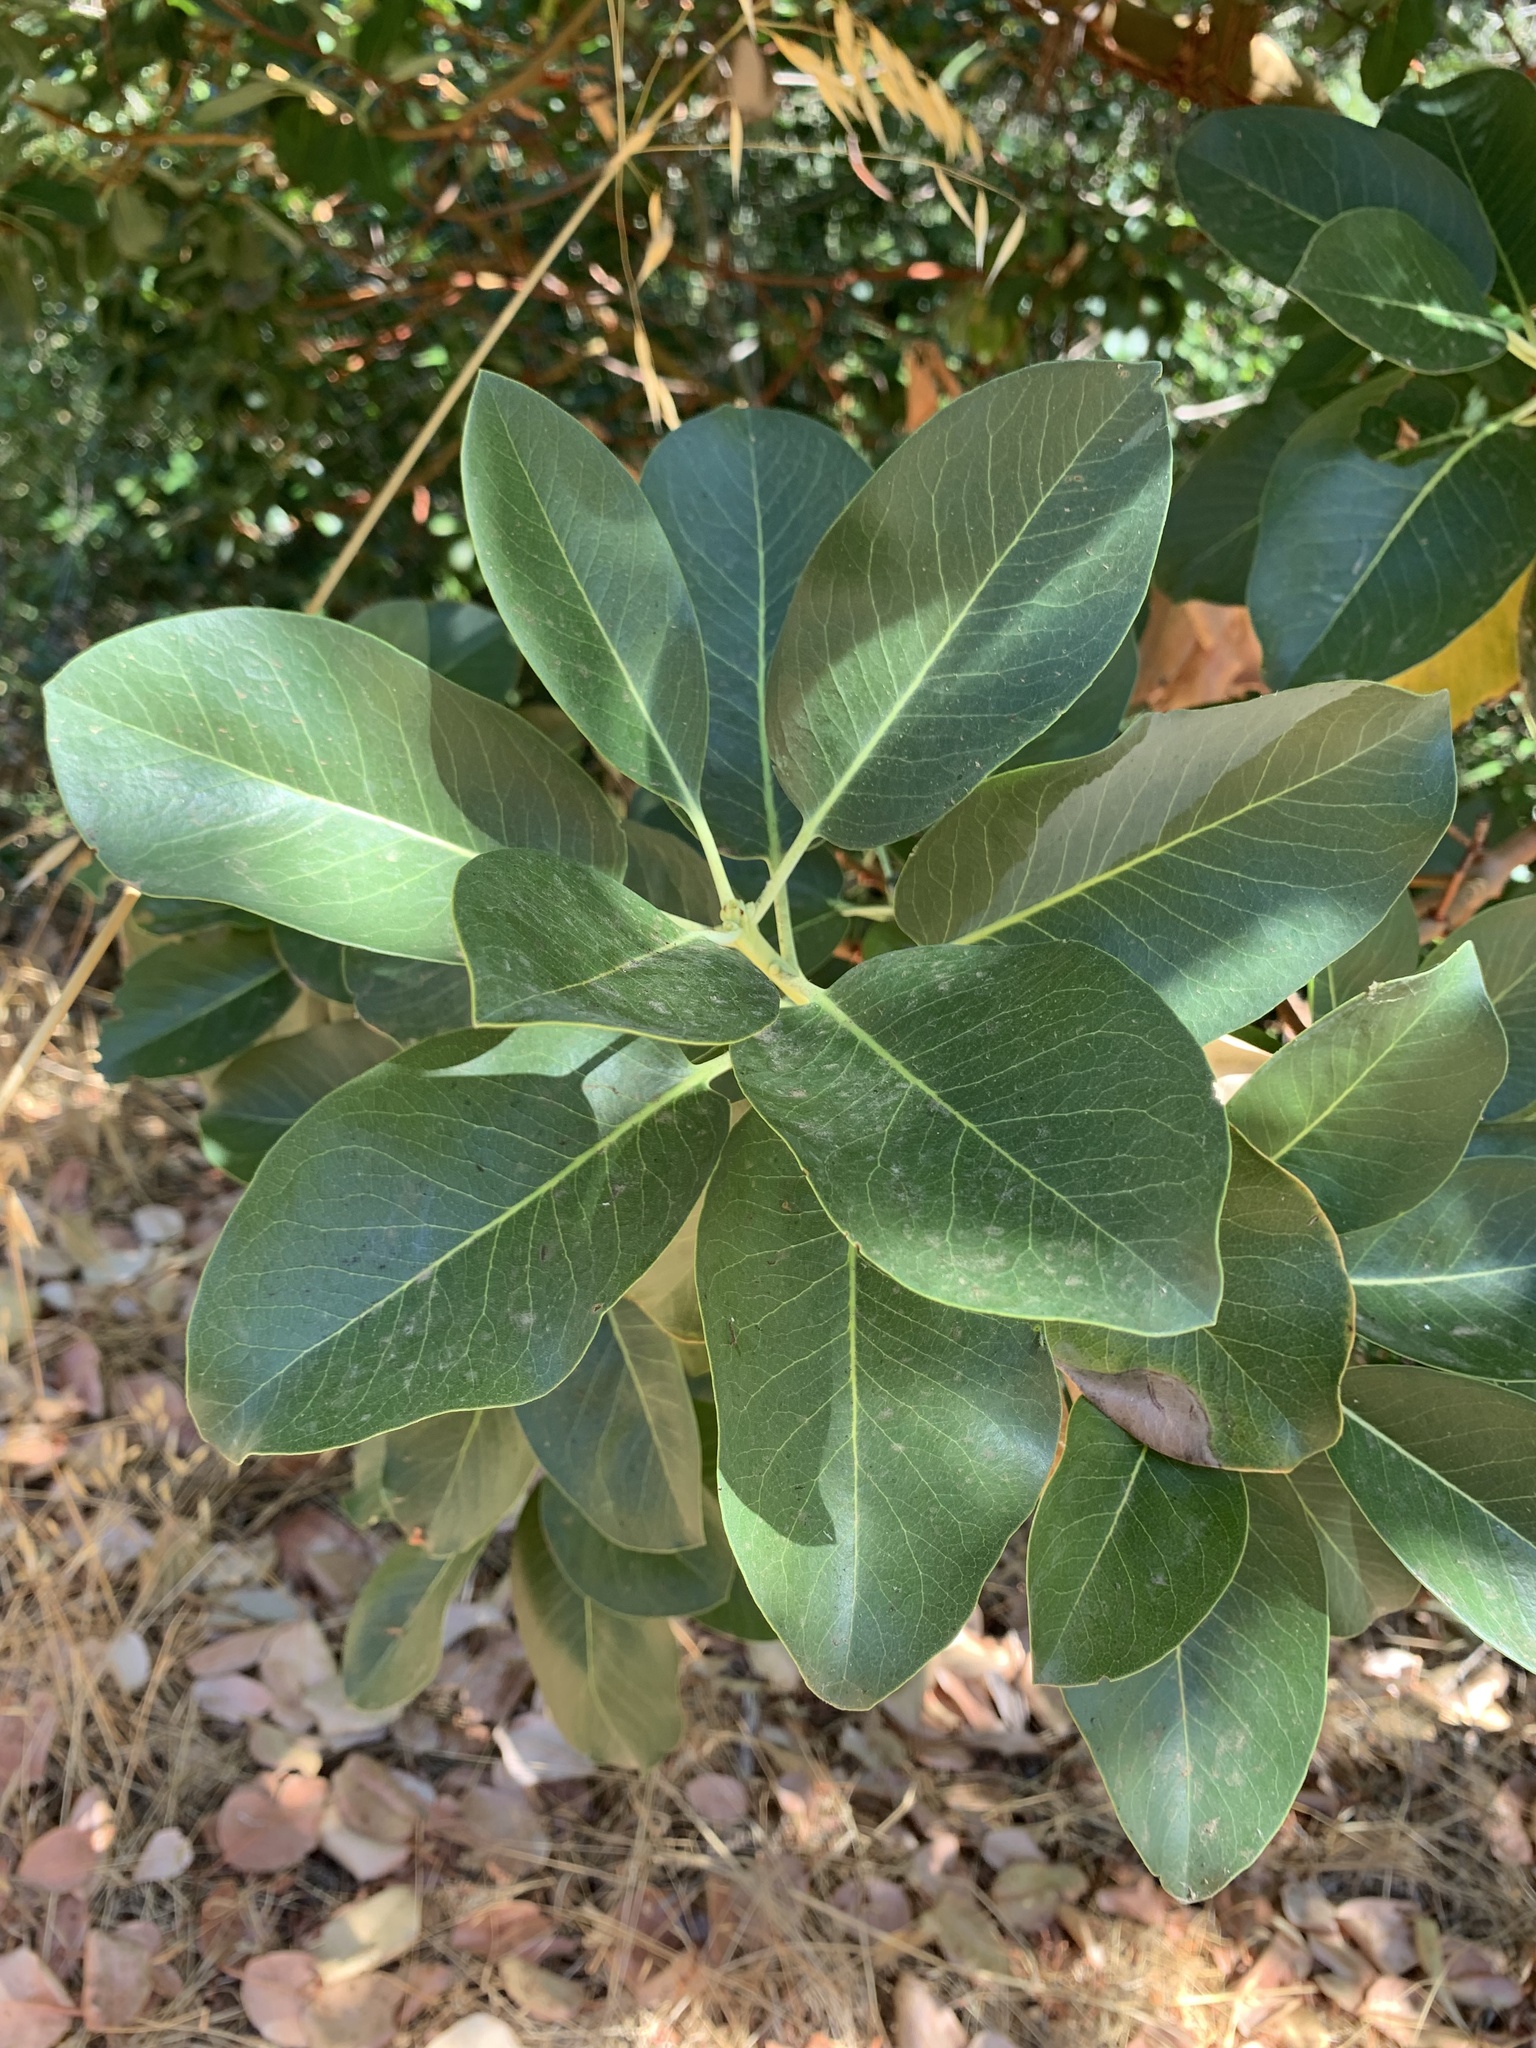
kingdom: Plantae
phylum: Tracheophyta
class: Magnoliopsida
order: Ericales
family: Ericaceae
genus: Arbutus
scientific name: Arbutus menziesii
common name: Pacific madrone
